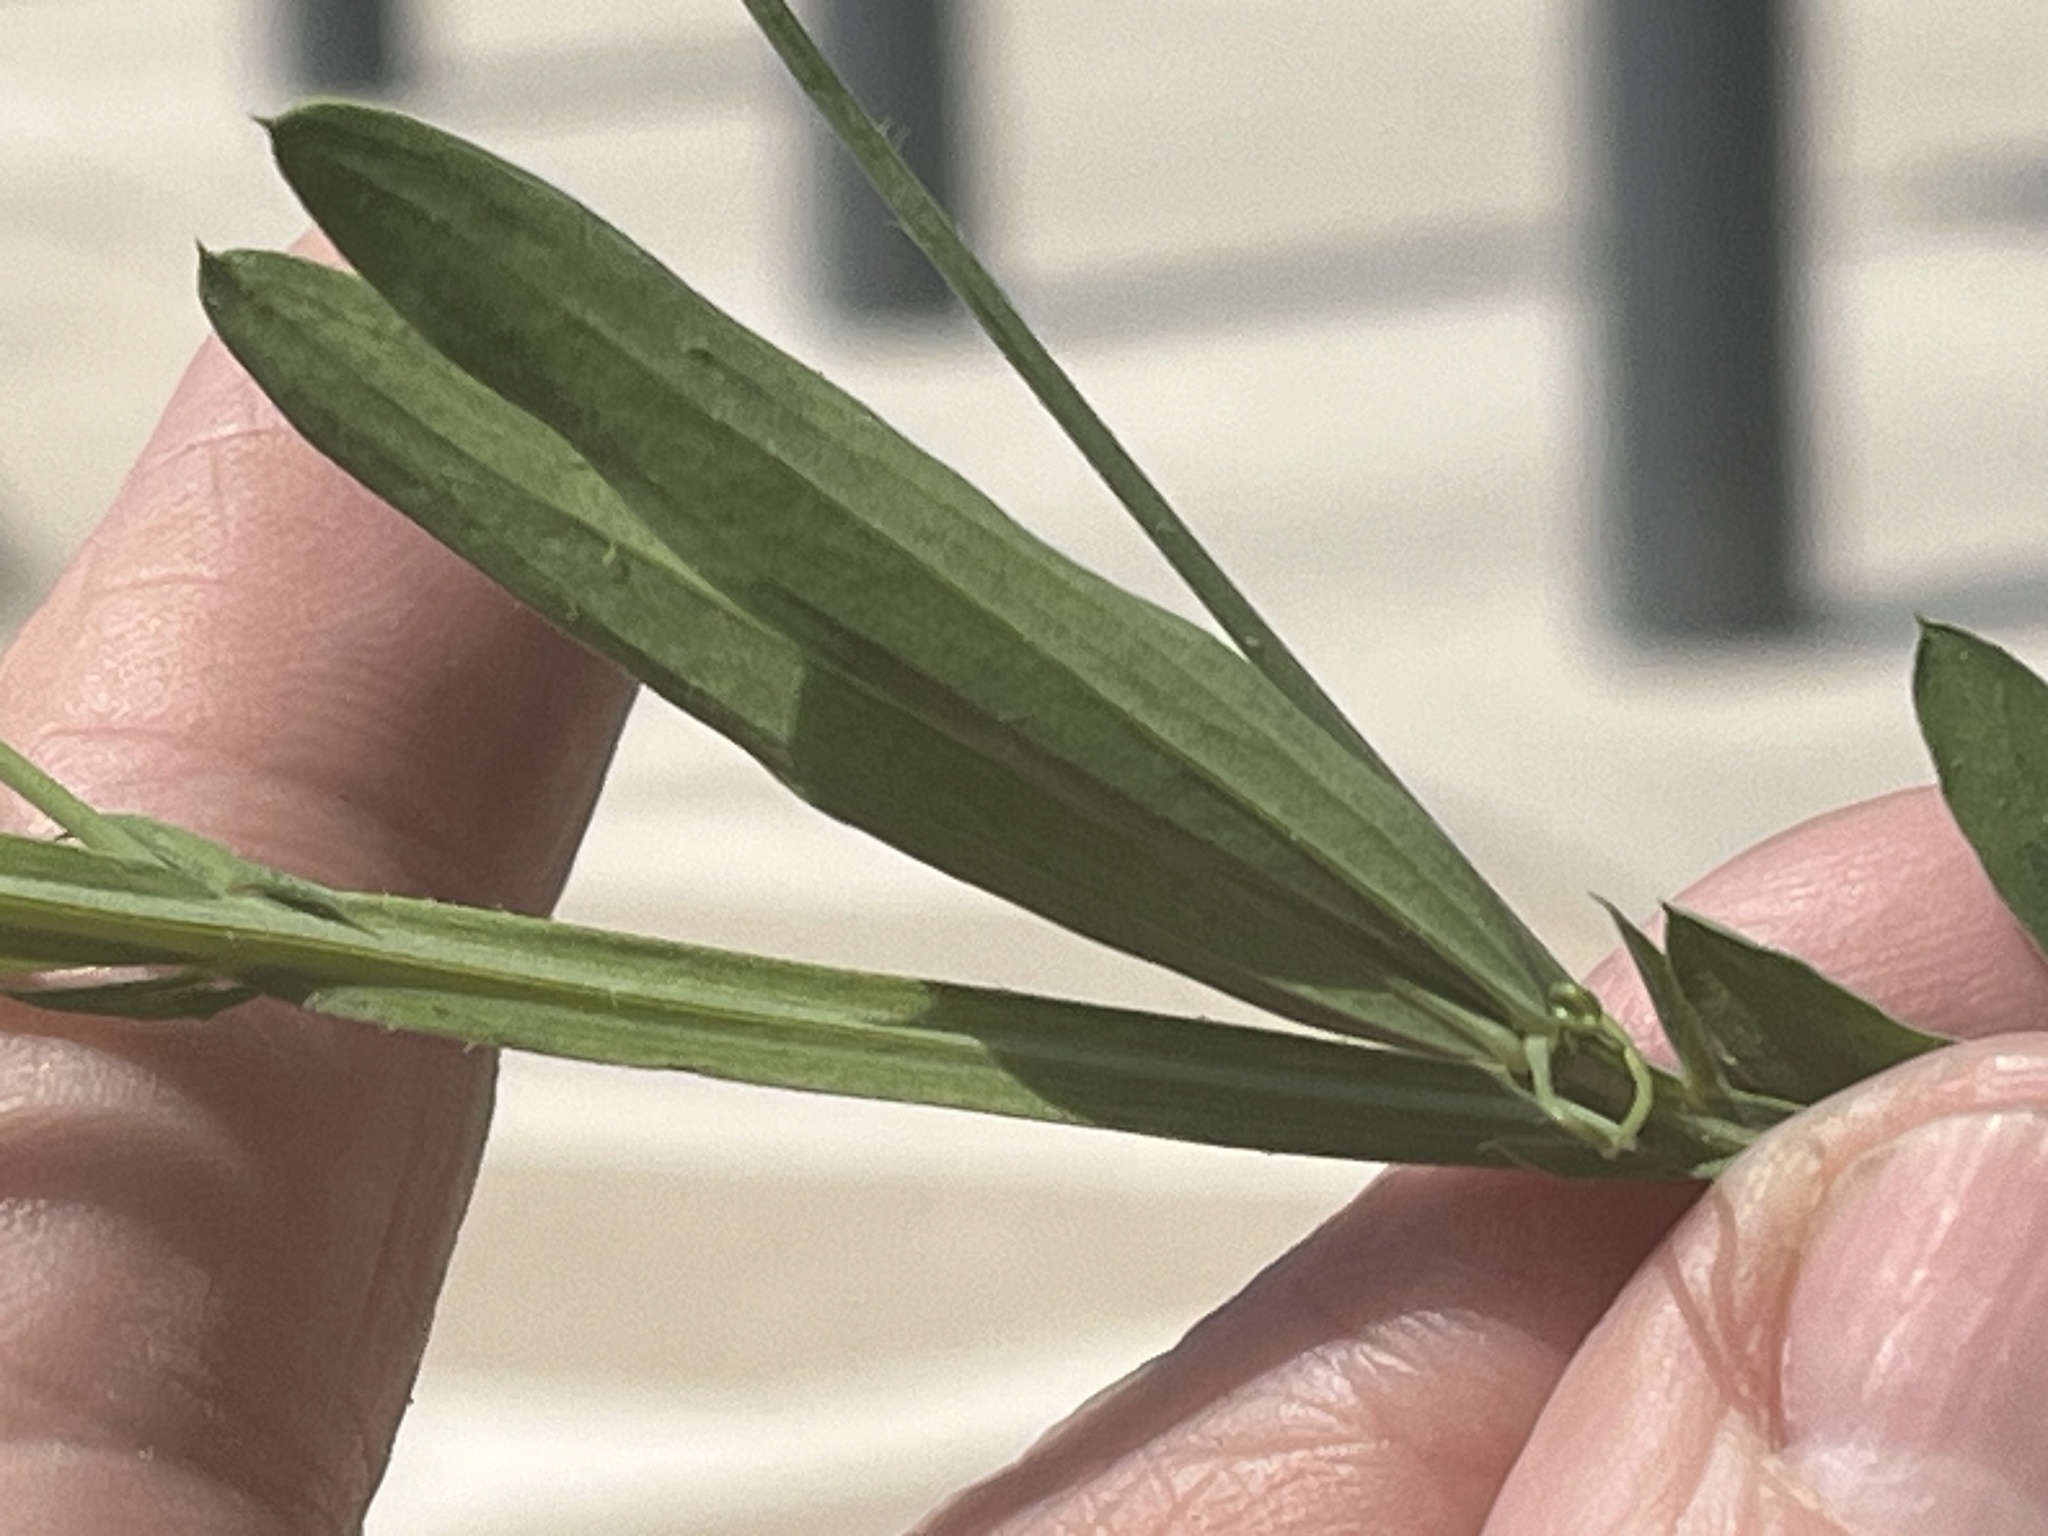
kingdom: Plantae
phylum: Tracheophyta
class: Magnoliopsida
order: Fabales
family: Fabaceae
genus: Lathyrus
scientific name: Lathyrus hirsutus
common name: Hairy vetchling
